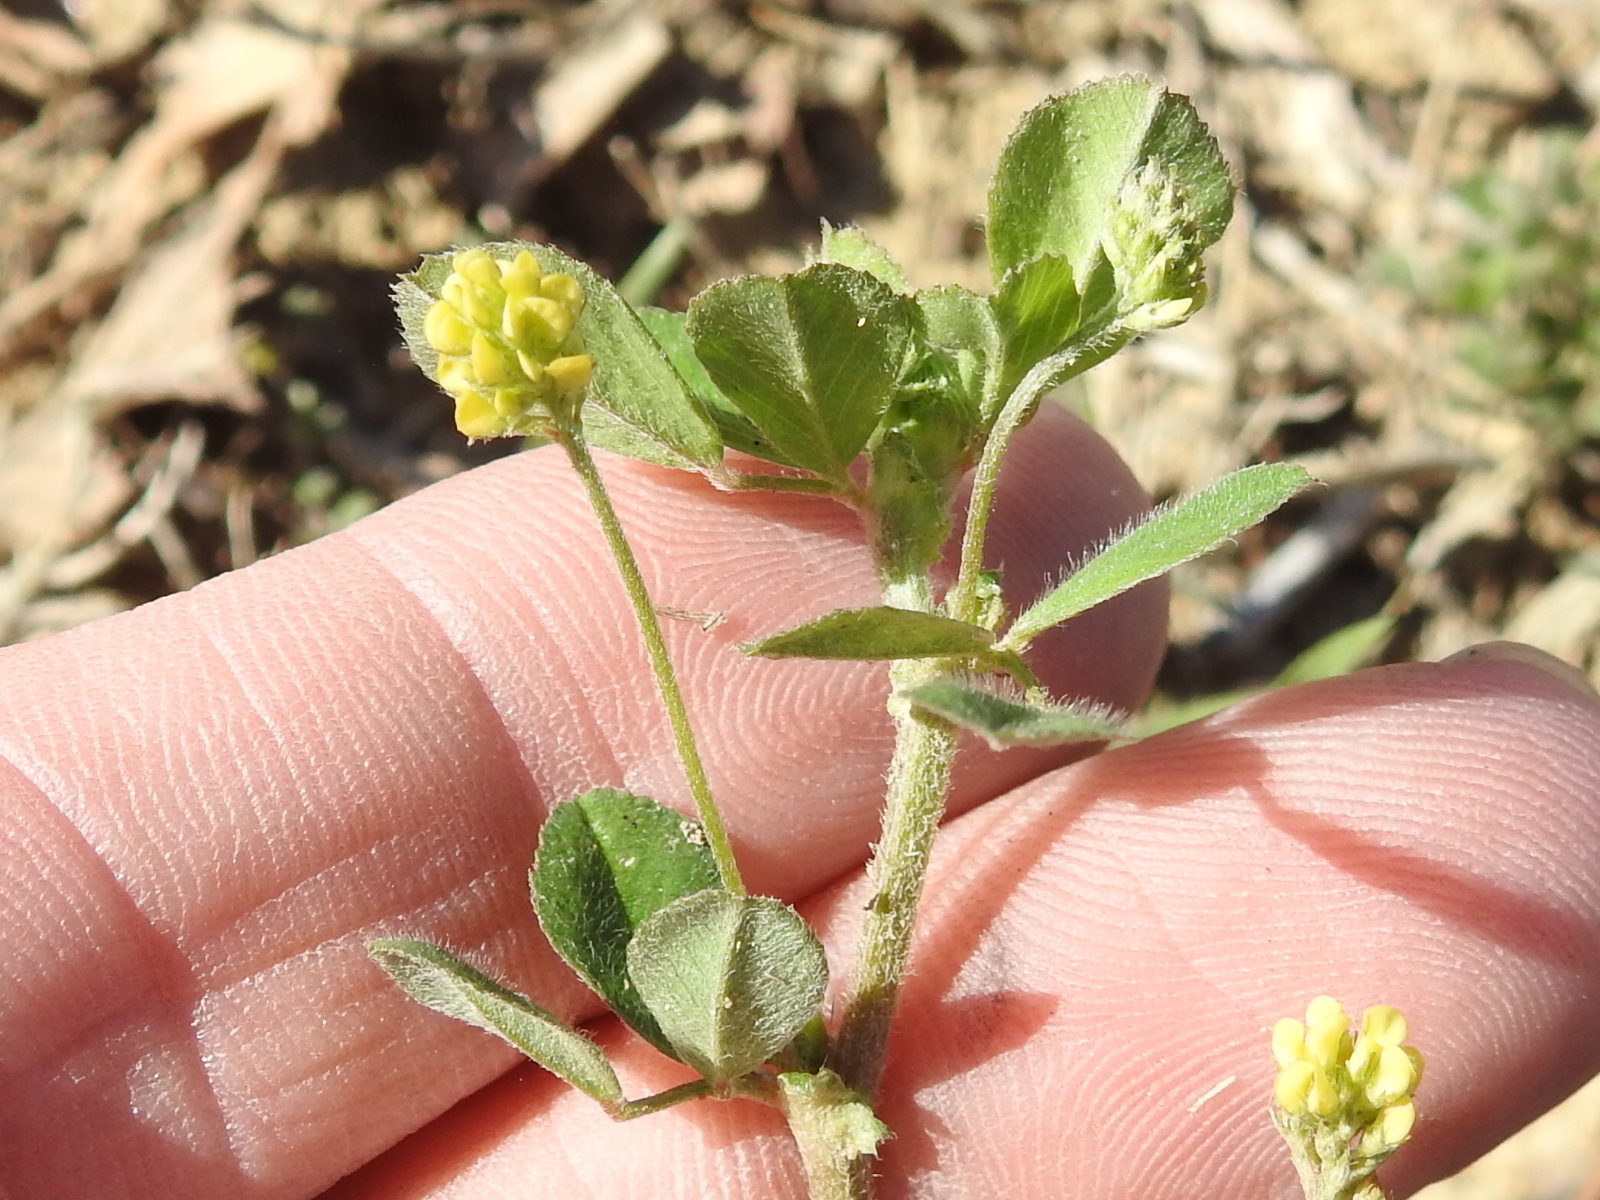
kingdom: Plantae
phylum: Tracheophyta
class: Magnoliopsida
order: Fabales
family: Fabaceae
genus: Medicago
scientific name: Medicago lupulina
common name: Black medick
